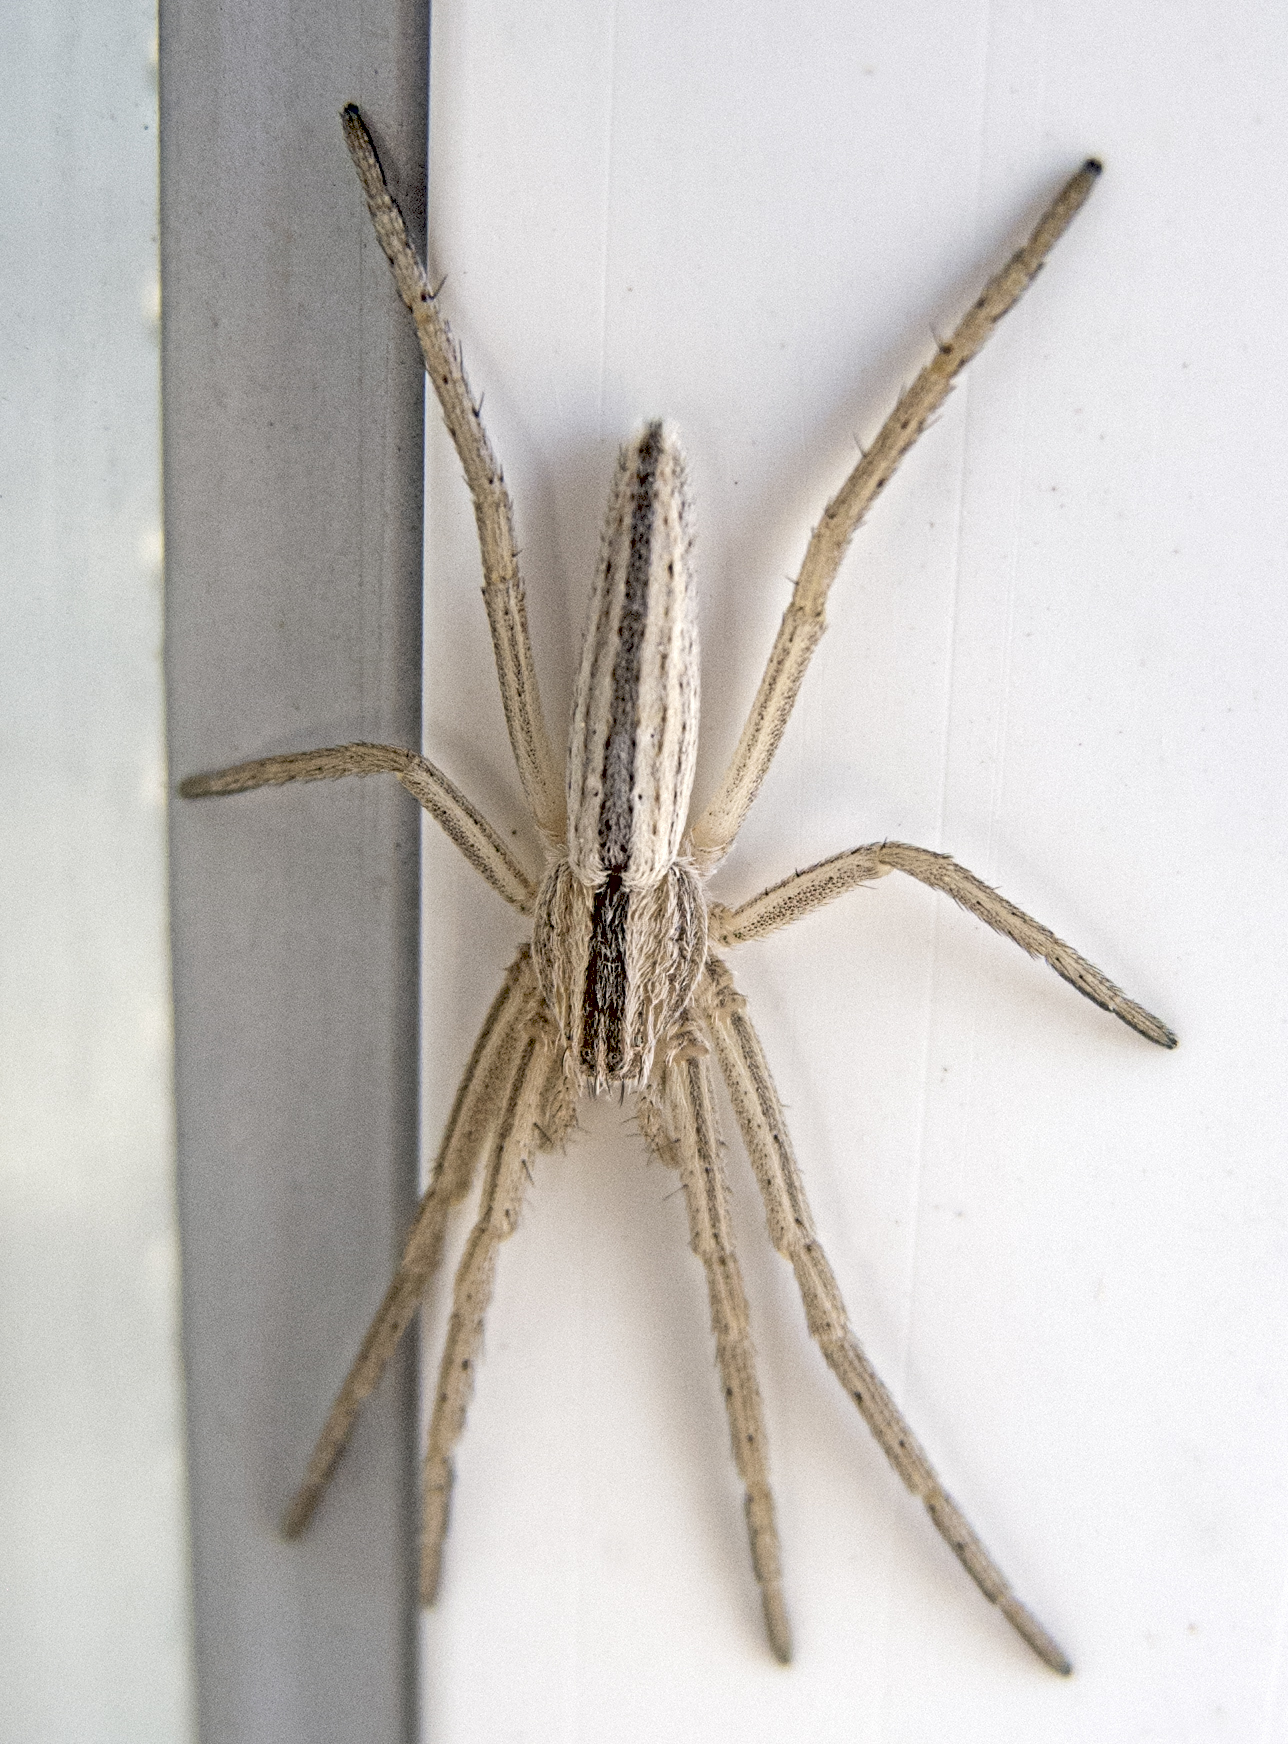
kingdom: Animalia
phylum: Arthropoda
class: Arachnida
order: Araneae
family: Philodromidae
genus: Tibellus
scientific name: Tibellus oblongus
